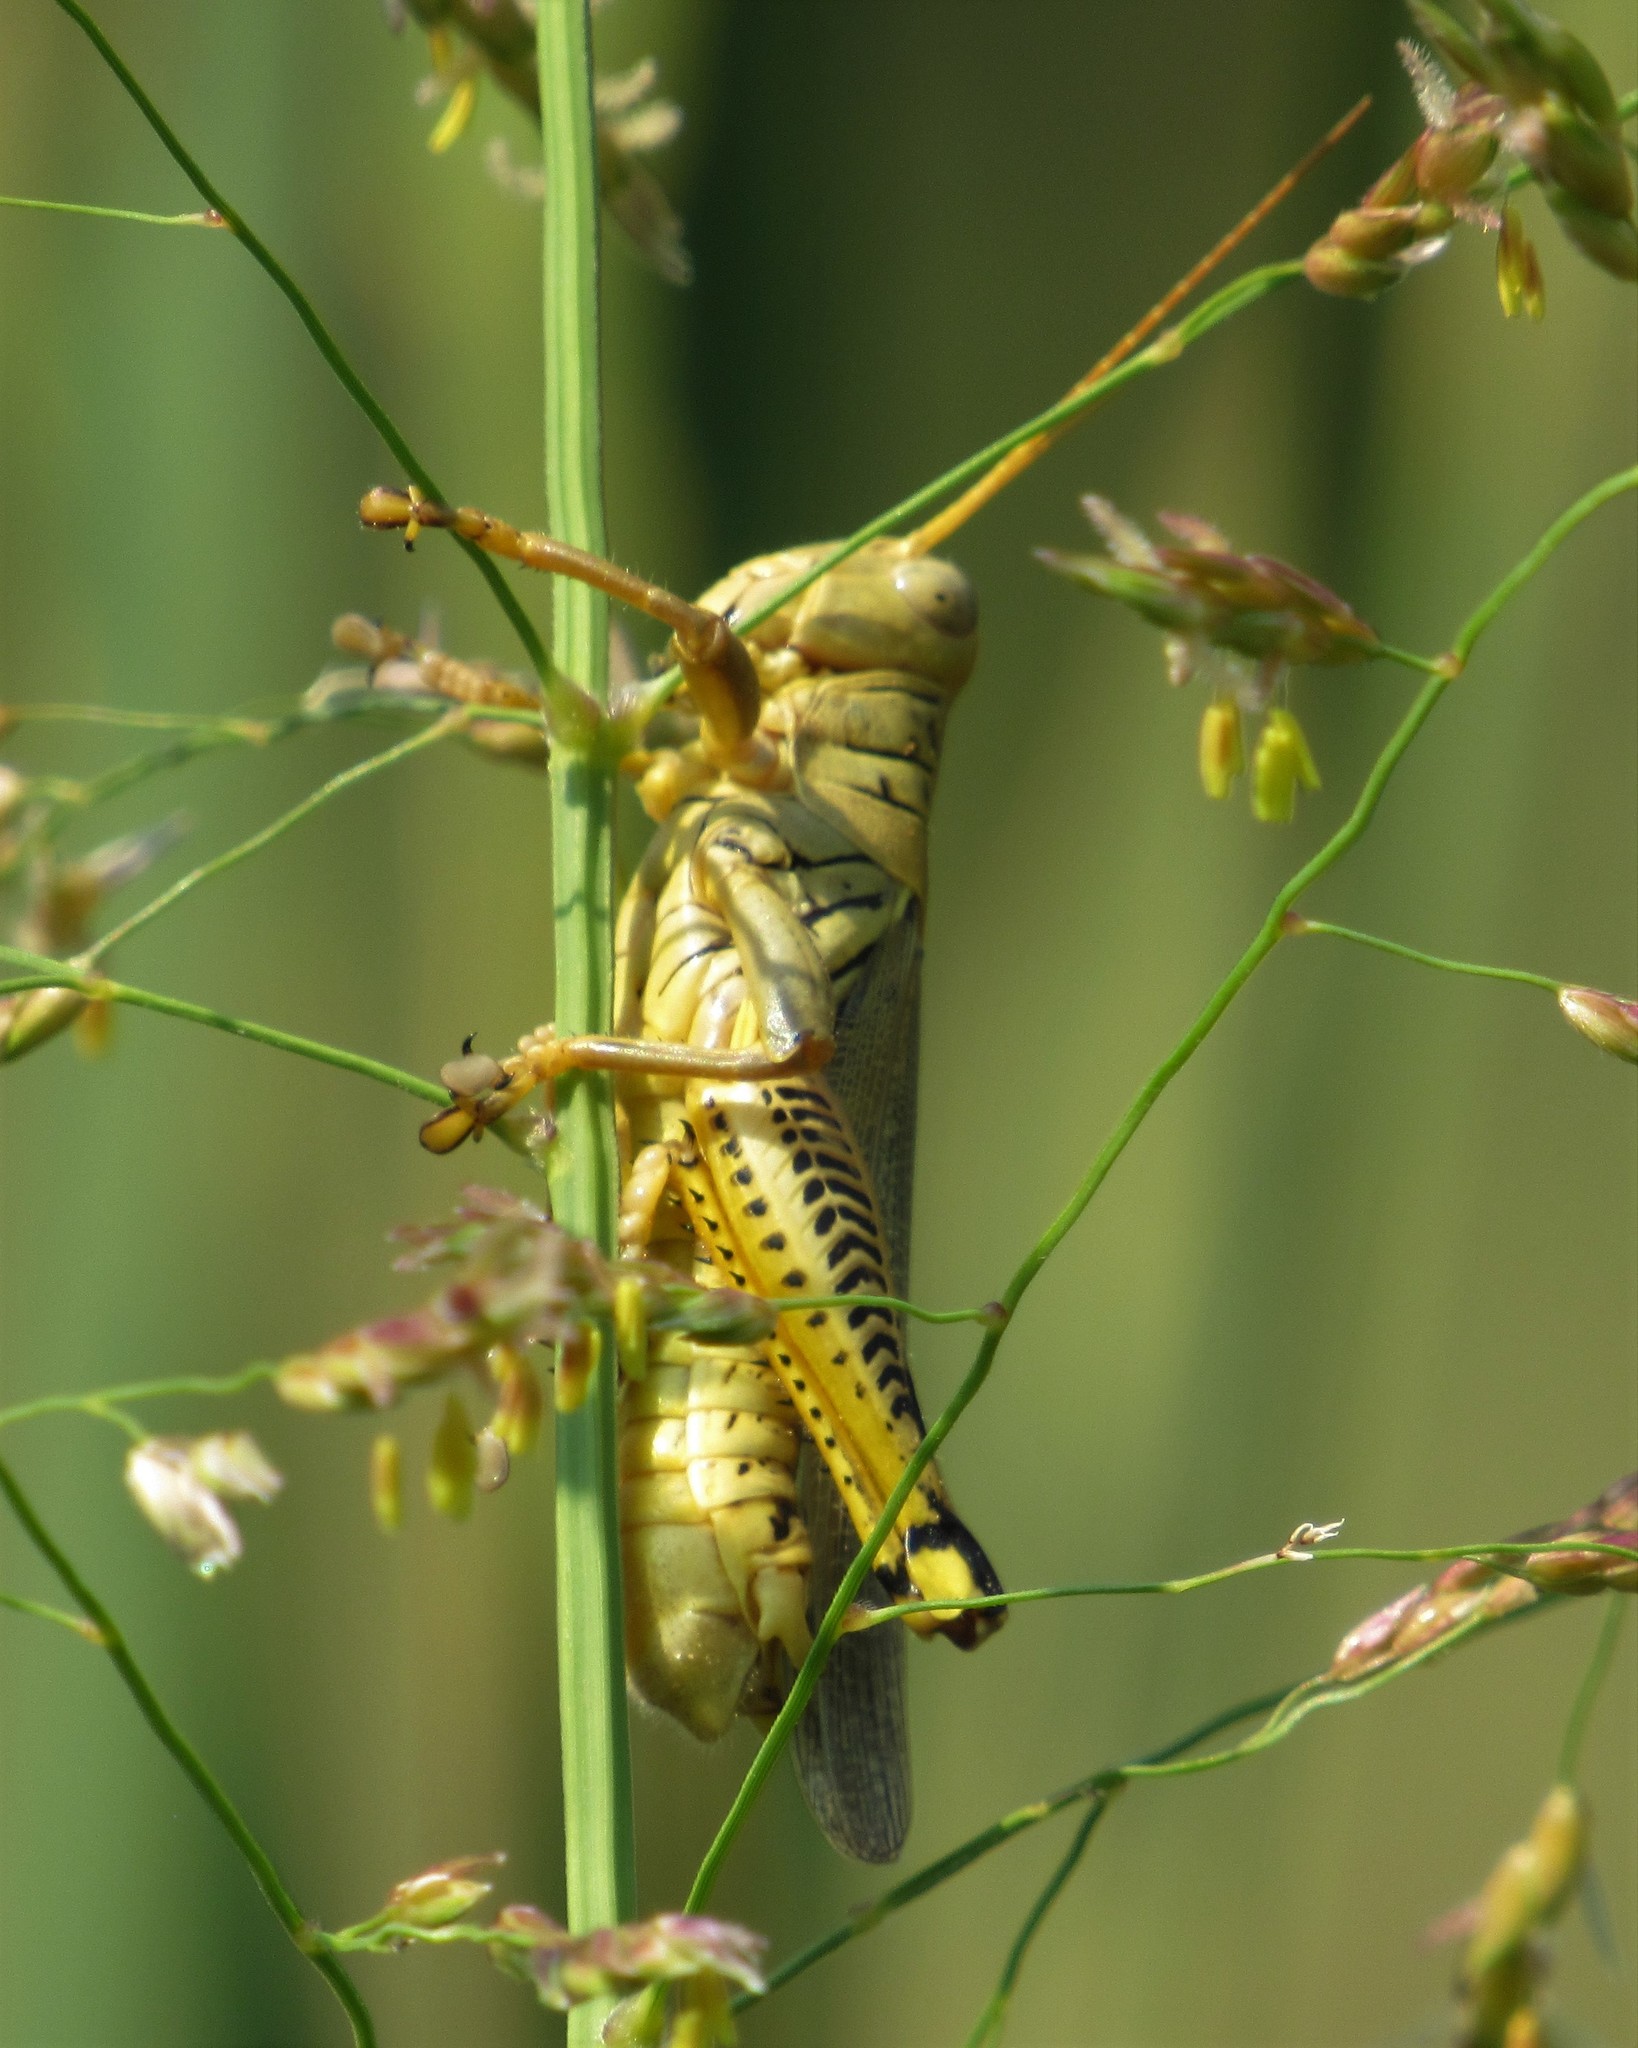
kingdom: Animalia
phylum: Arthropoda
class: Insecta
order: Orthoptera
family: Acrididae
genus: Melanoplus
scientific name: Melanoplus differentialis
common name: Differential grasshopper
